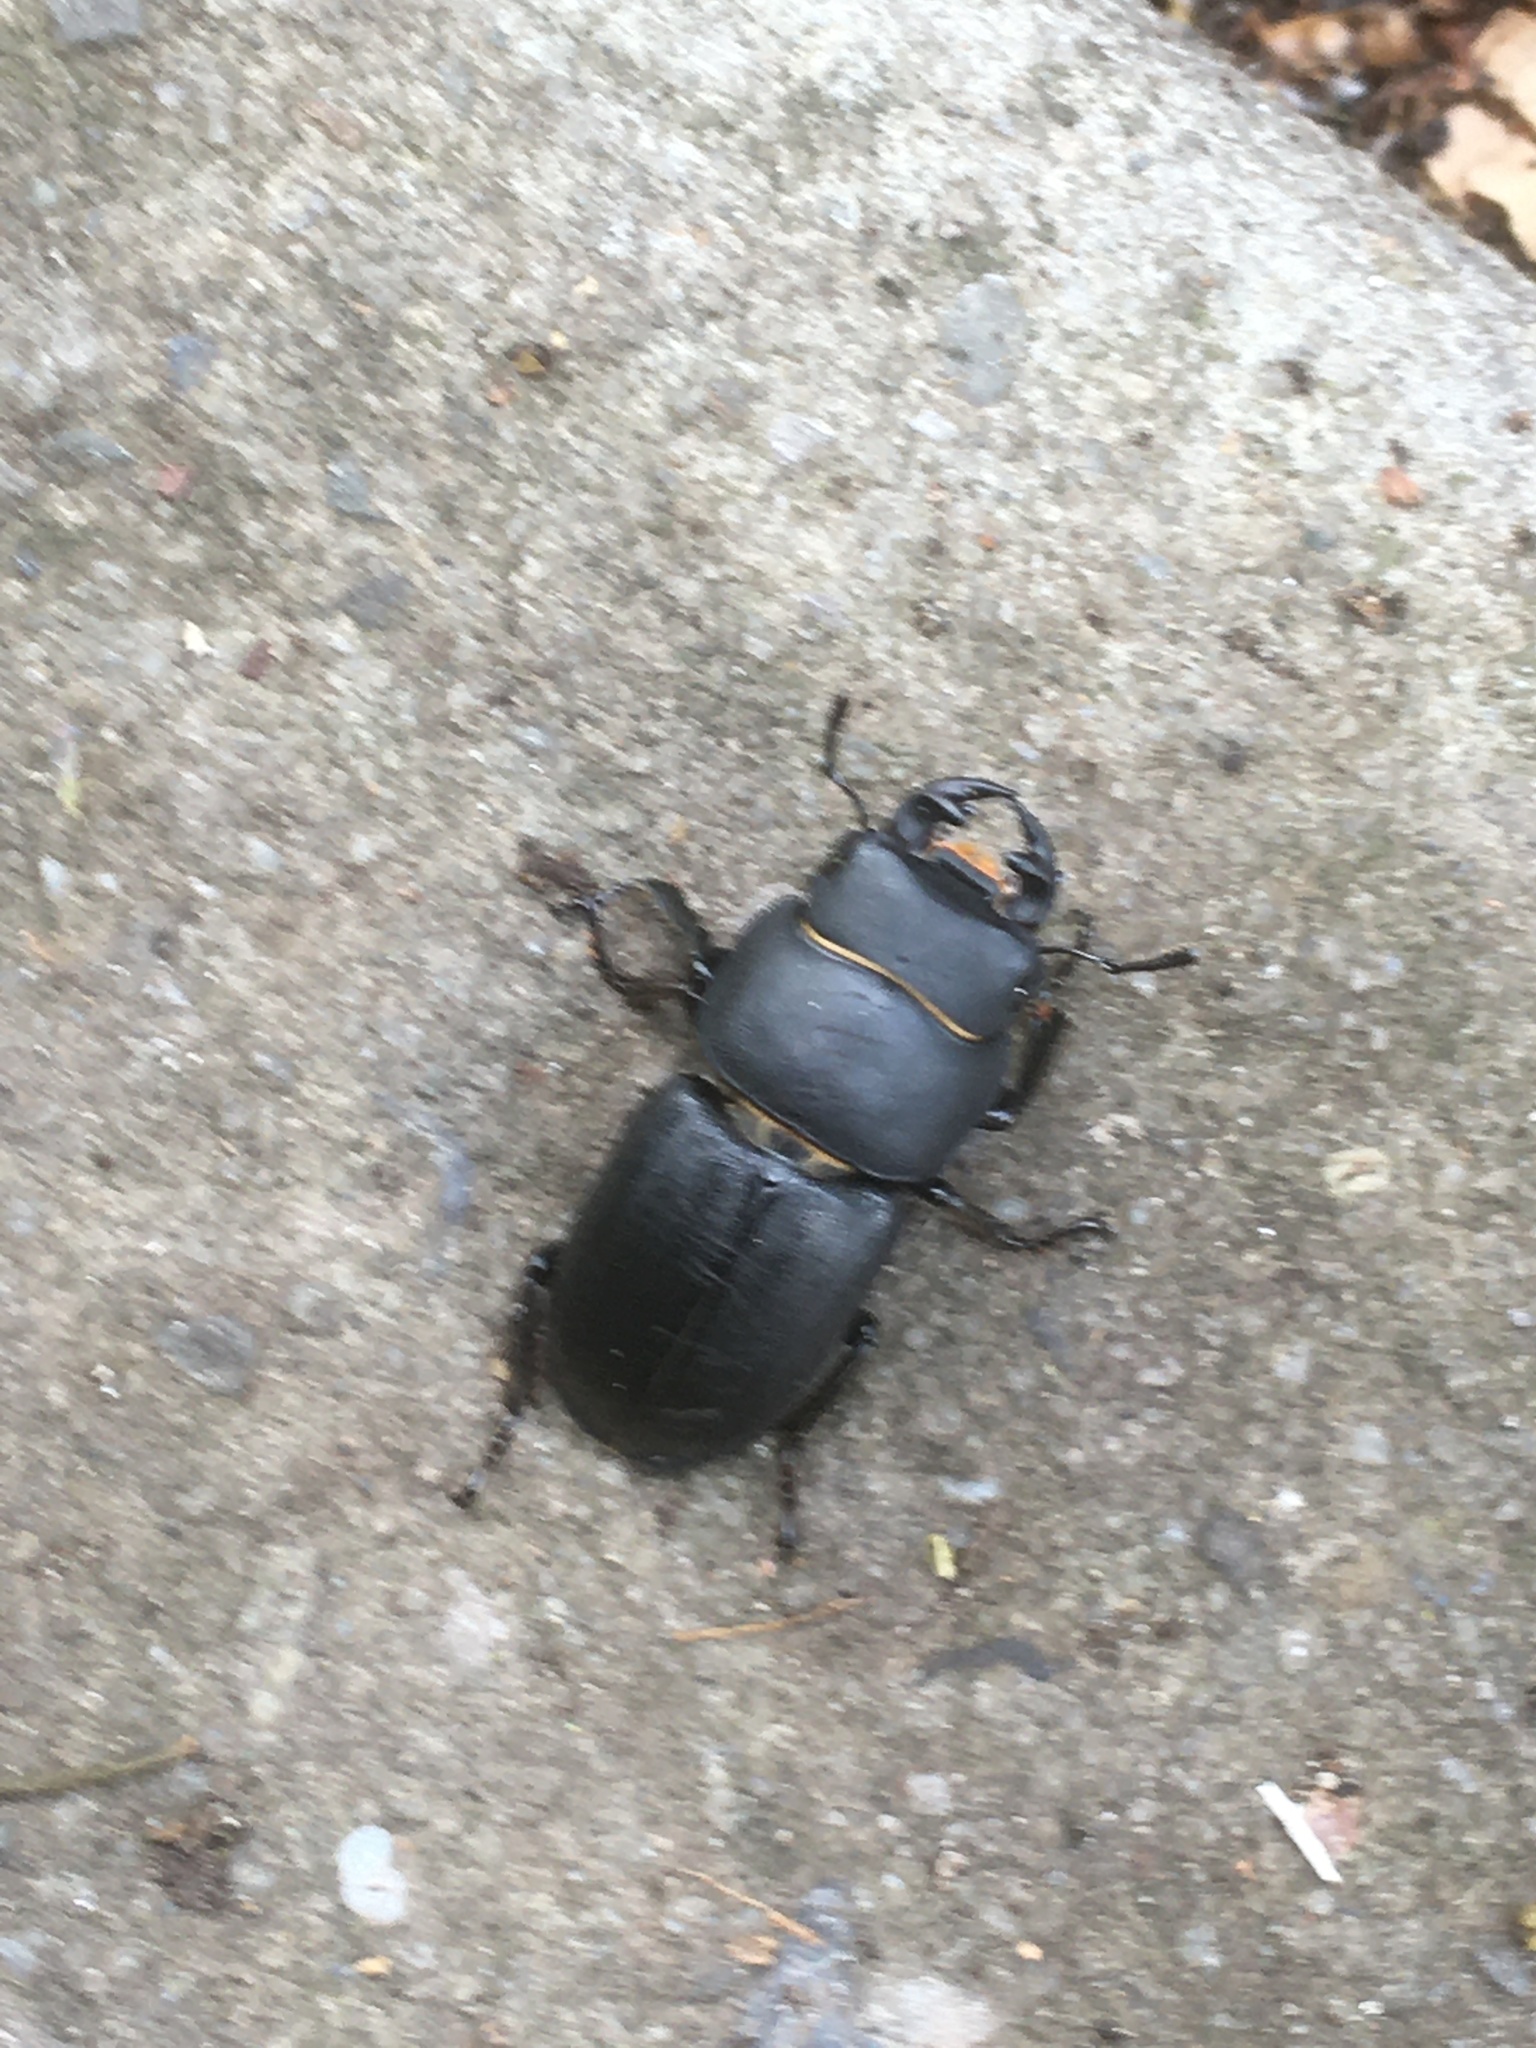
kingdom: Animalia
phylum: Arthropoda
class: Insecta
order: Coleoptera
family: Lucanidae
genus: Dorcus
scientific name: Dorcus parallelipipedus
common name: Lesser stag beetle
